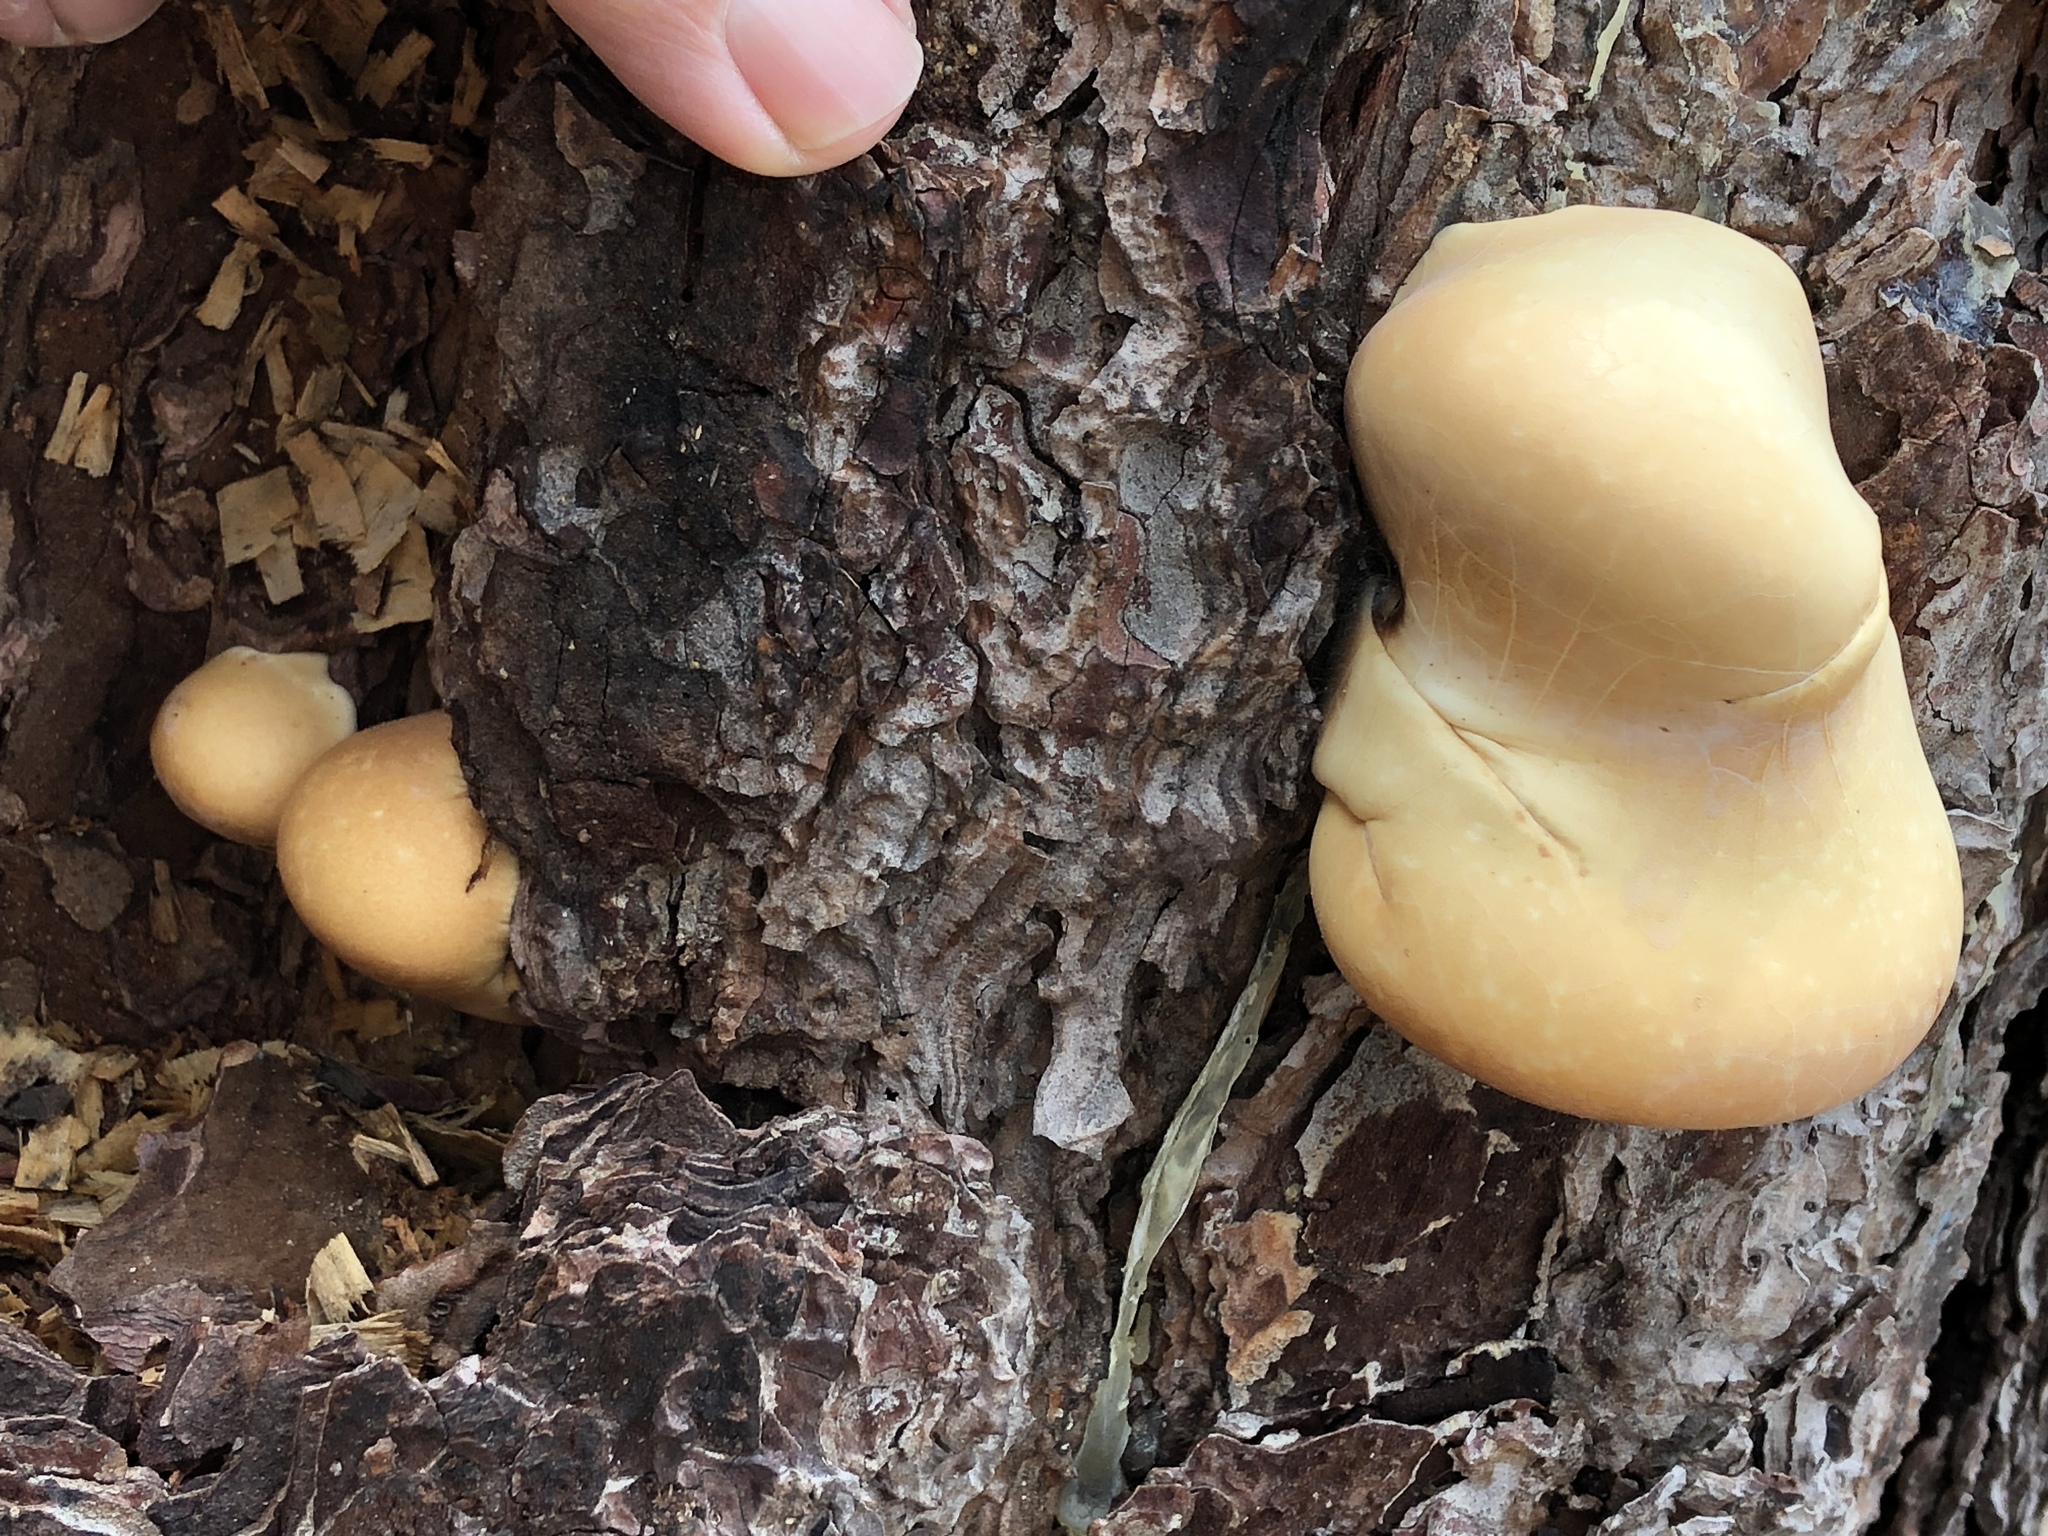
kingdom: Fungi
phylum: Basidiomycota
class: Agaricomycetes
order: Polyporales
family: Polyporaceae
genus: Cryptoporus
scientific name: Cryptoporus volvatus
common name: Veiled polypore
